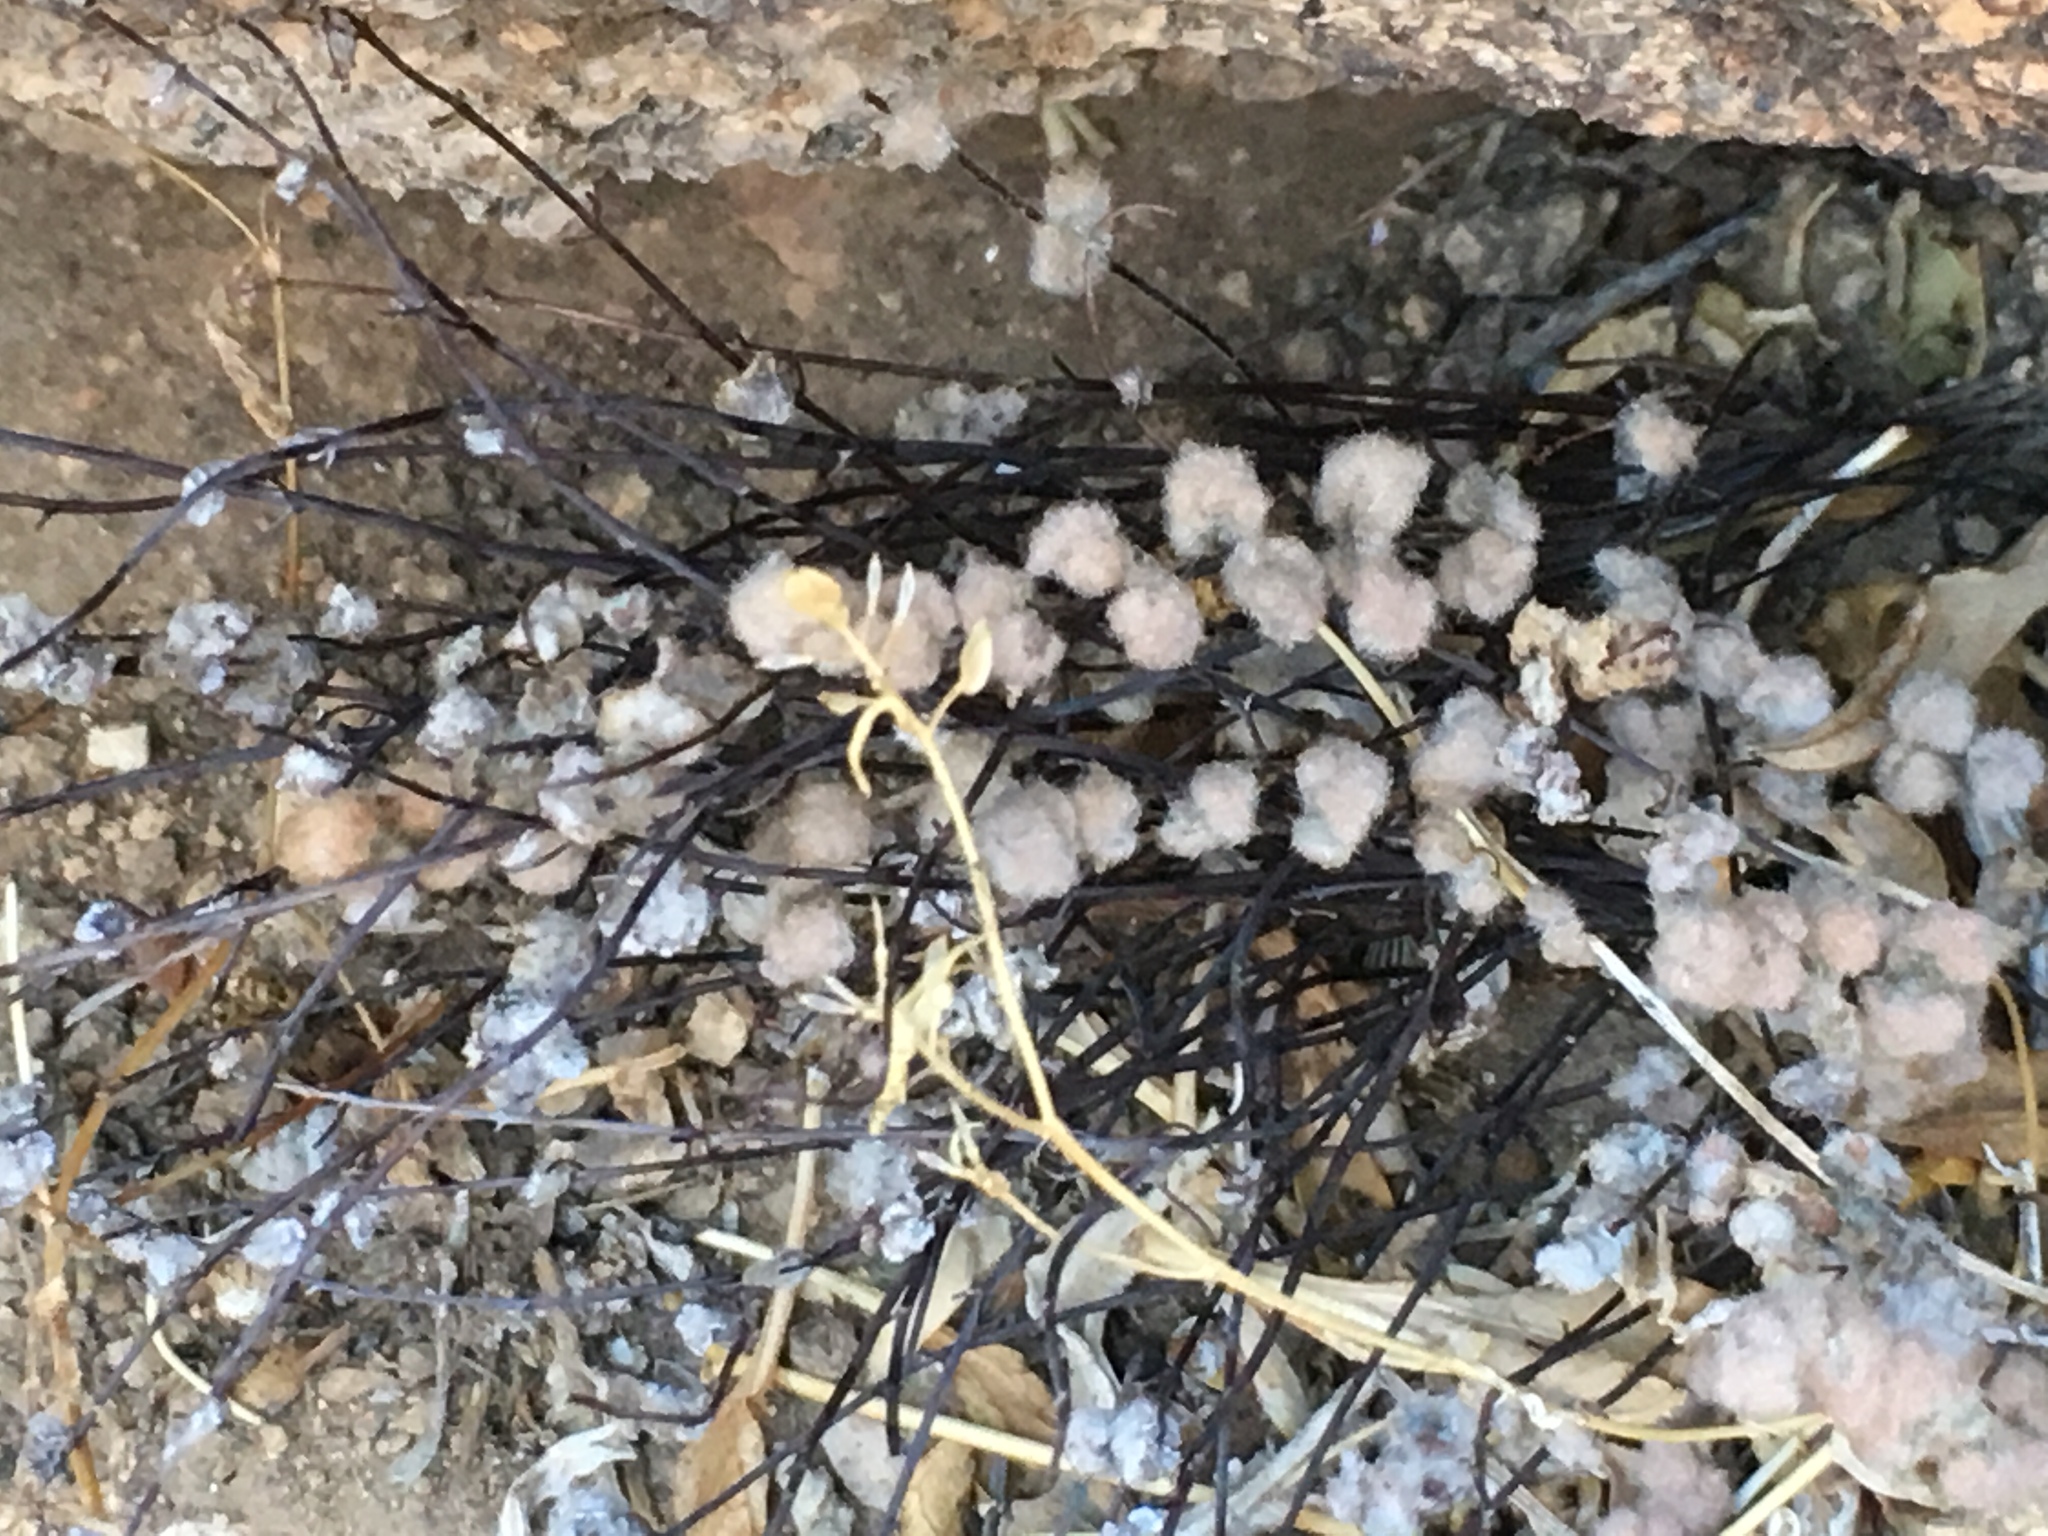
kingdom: Plantae
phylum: Tracheophyta
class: Polypodiopsida
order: Polypodiales
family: Pteridaceae
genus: Myriopteris
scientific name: Myriopteris parryi
